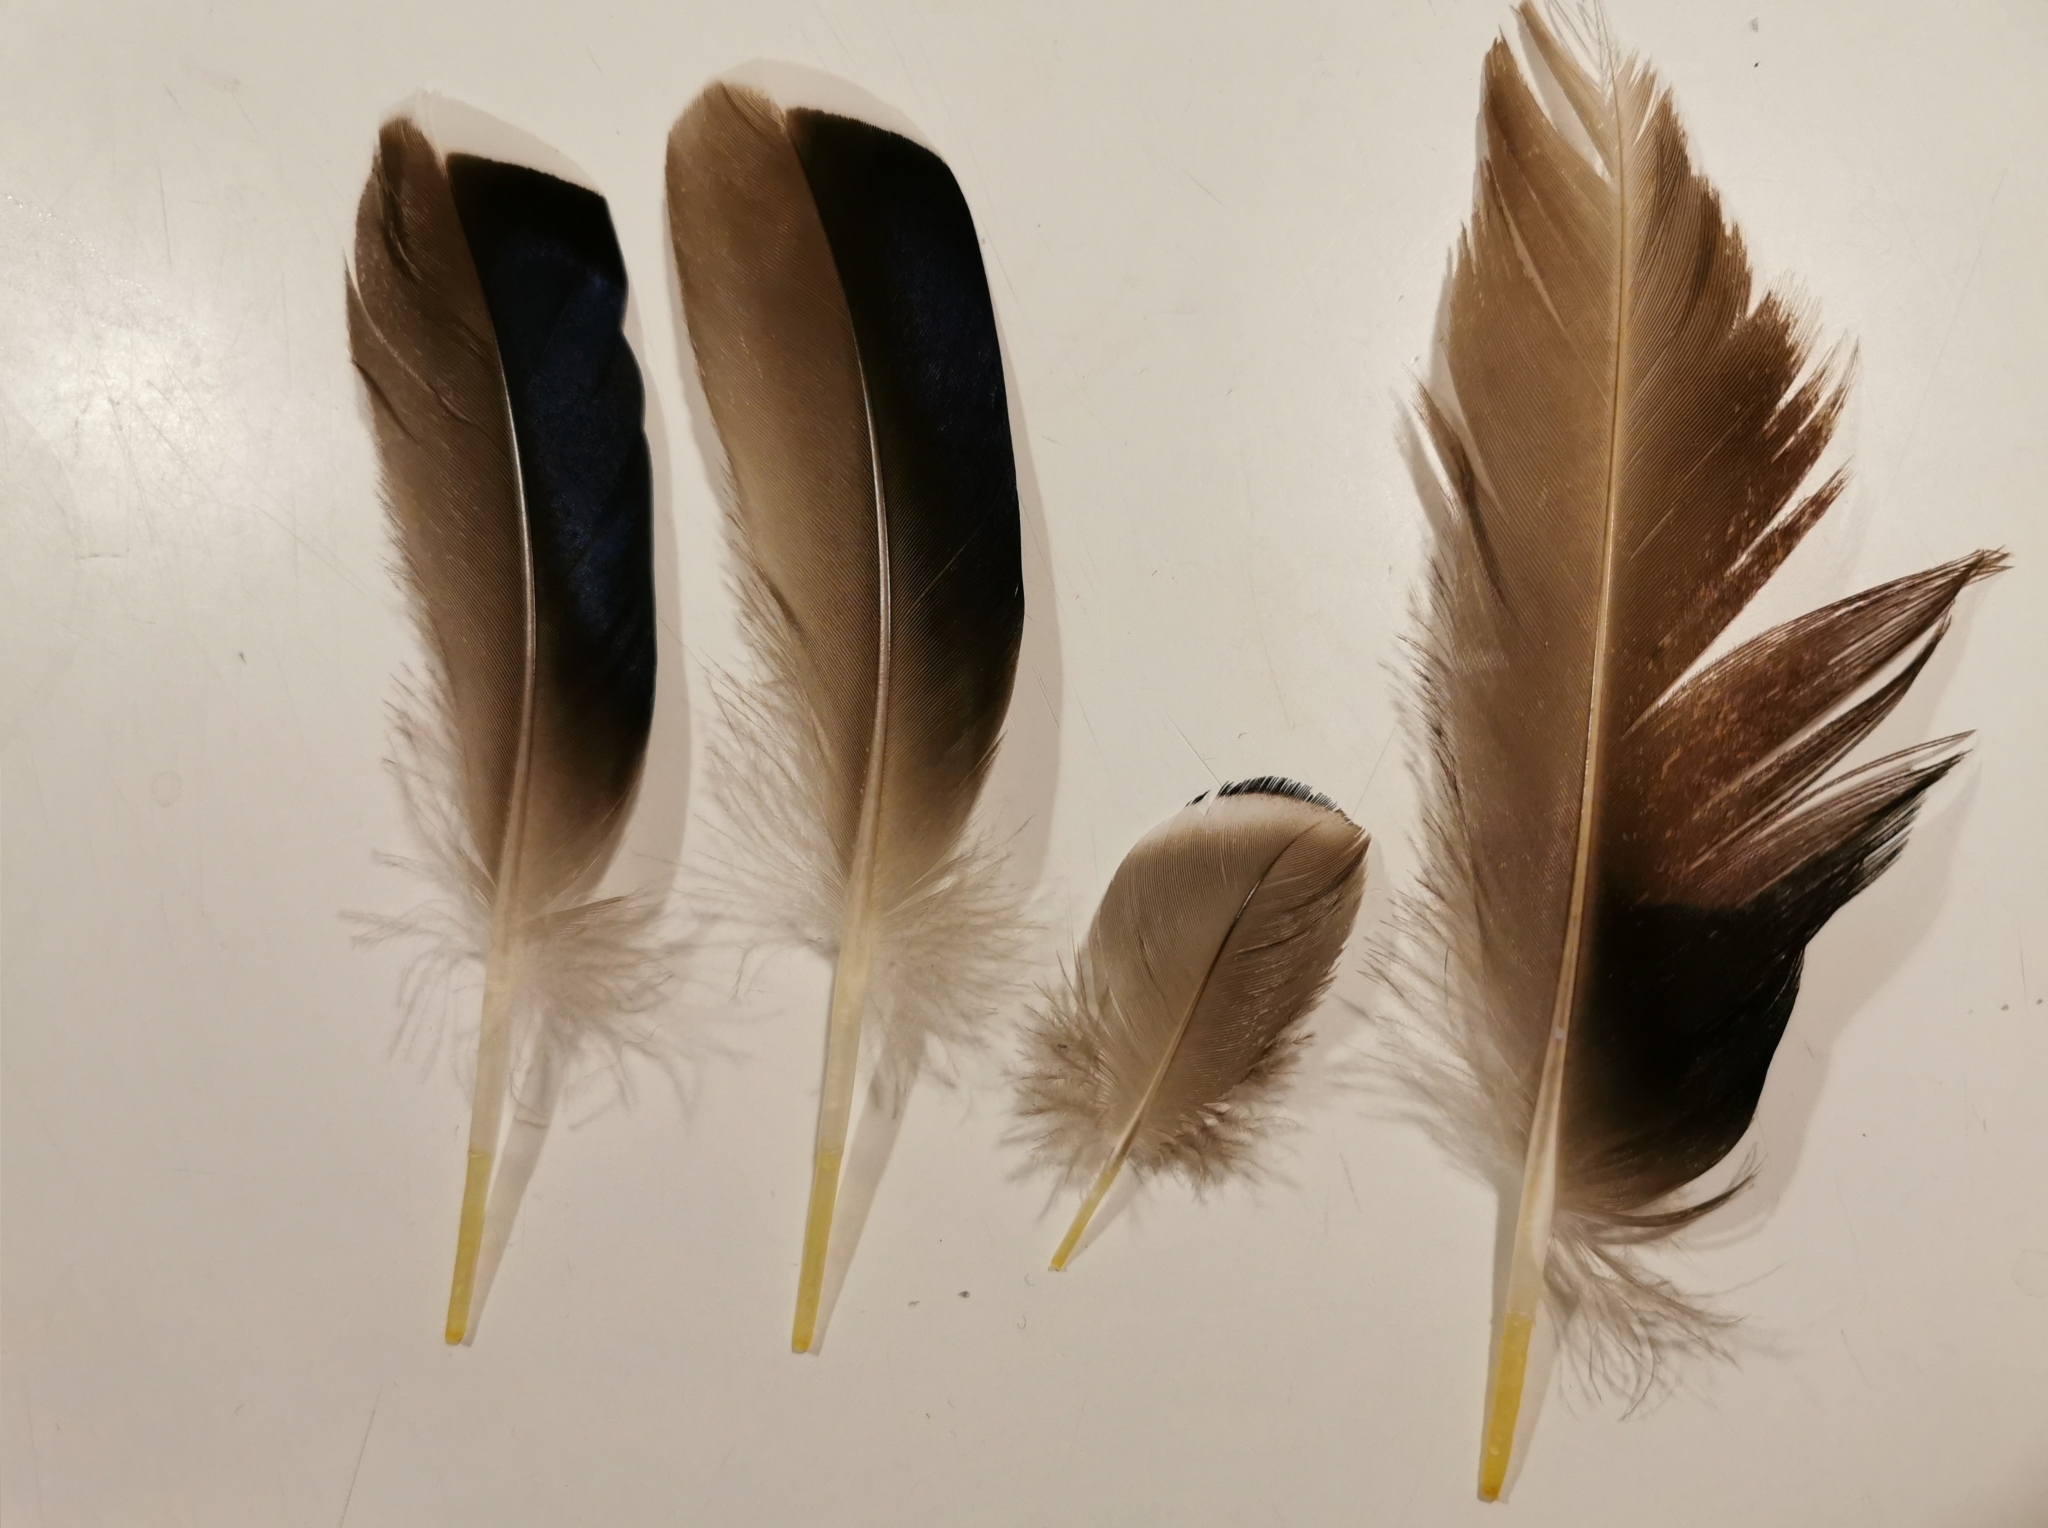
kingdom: Animalia
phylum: Chordata
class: Aves
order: Anseriformes
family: Anatidae
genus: Anas
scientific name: Anas platyrhynchos
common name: Mallard
